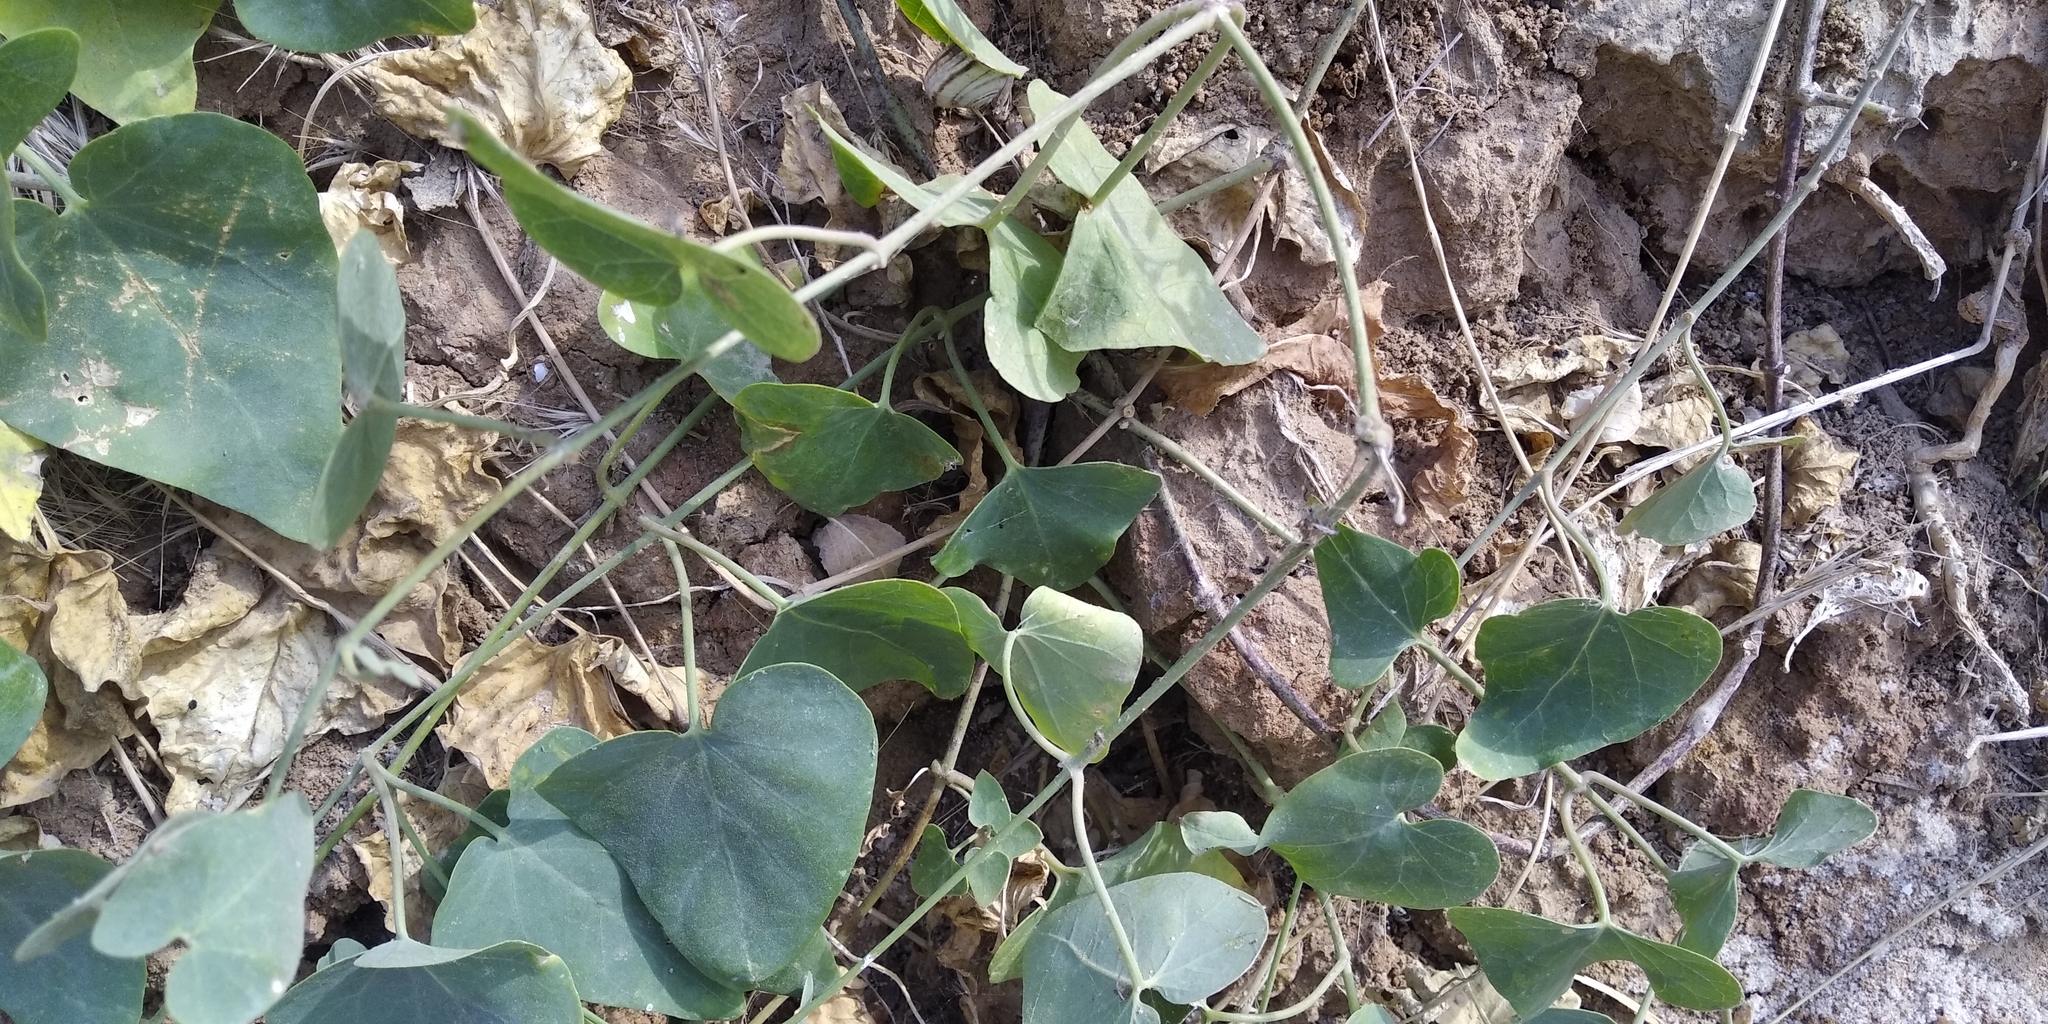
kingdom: Plantae
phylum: Tracheophyta
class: Magnoliopsida
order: Piperales
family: Aristolochiaceae
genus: Aristolochia
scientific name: Aristolochia clematitis
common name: Birthwort
